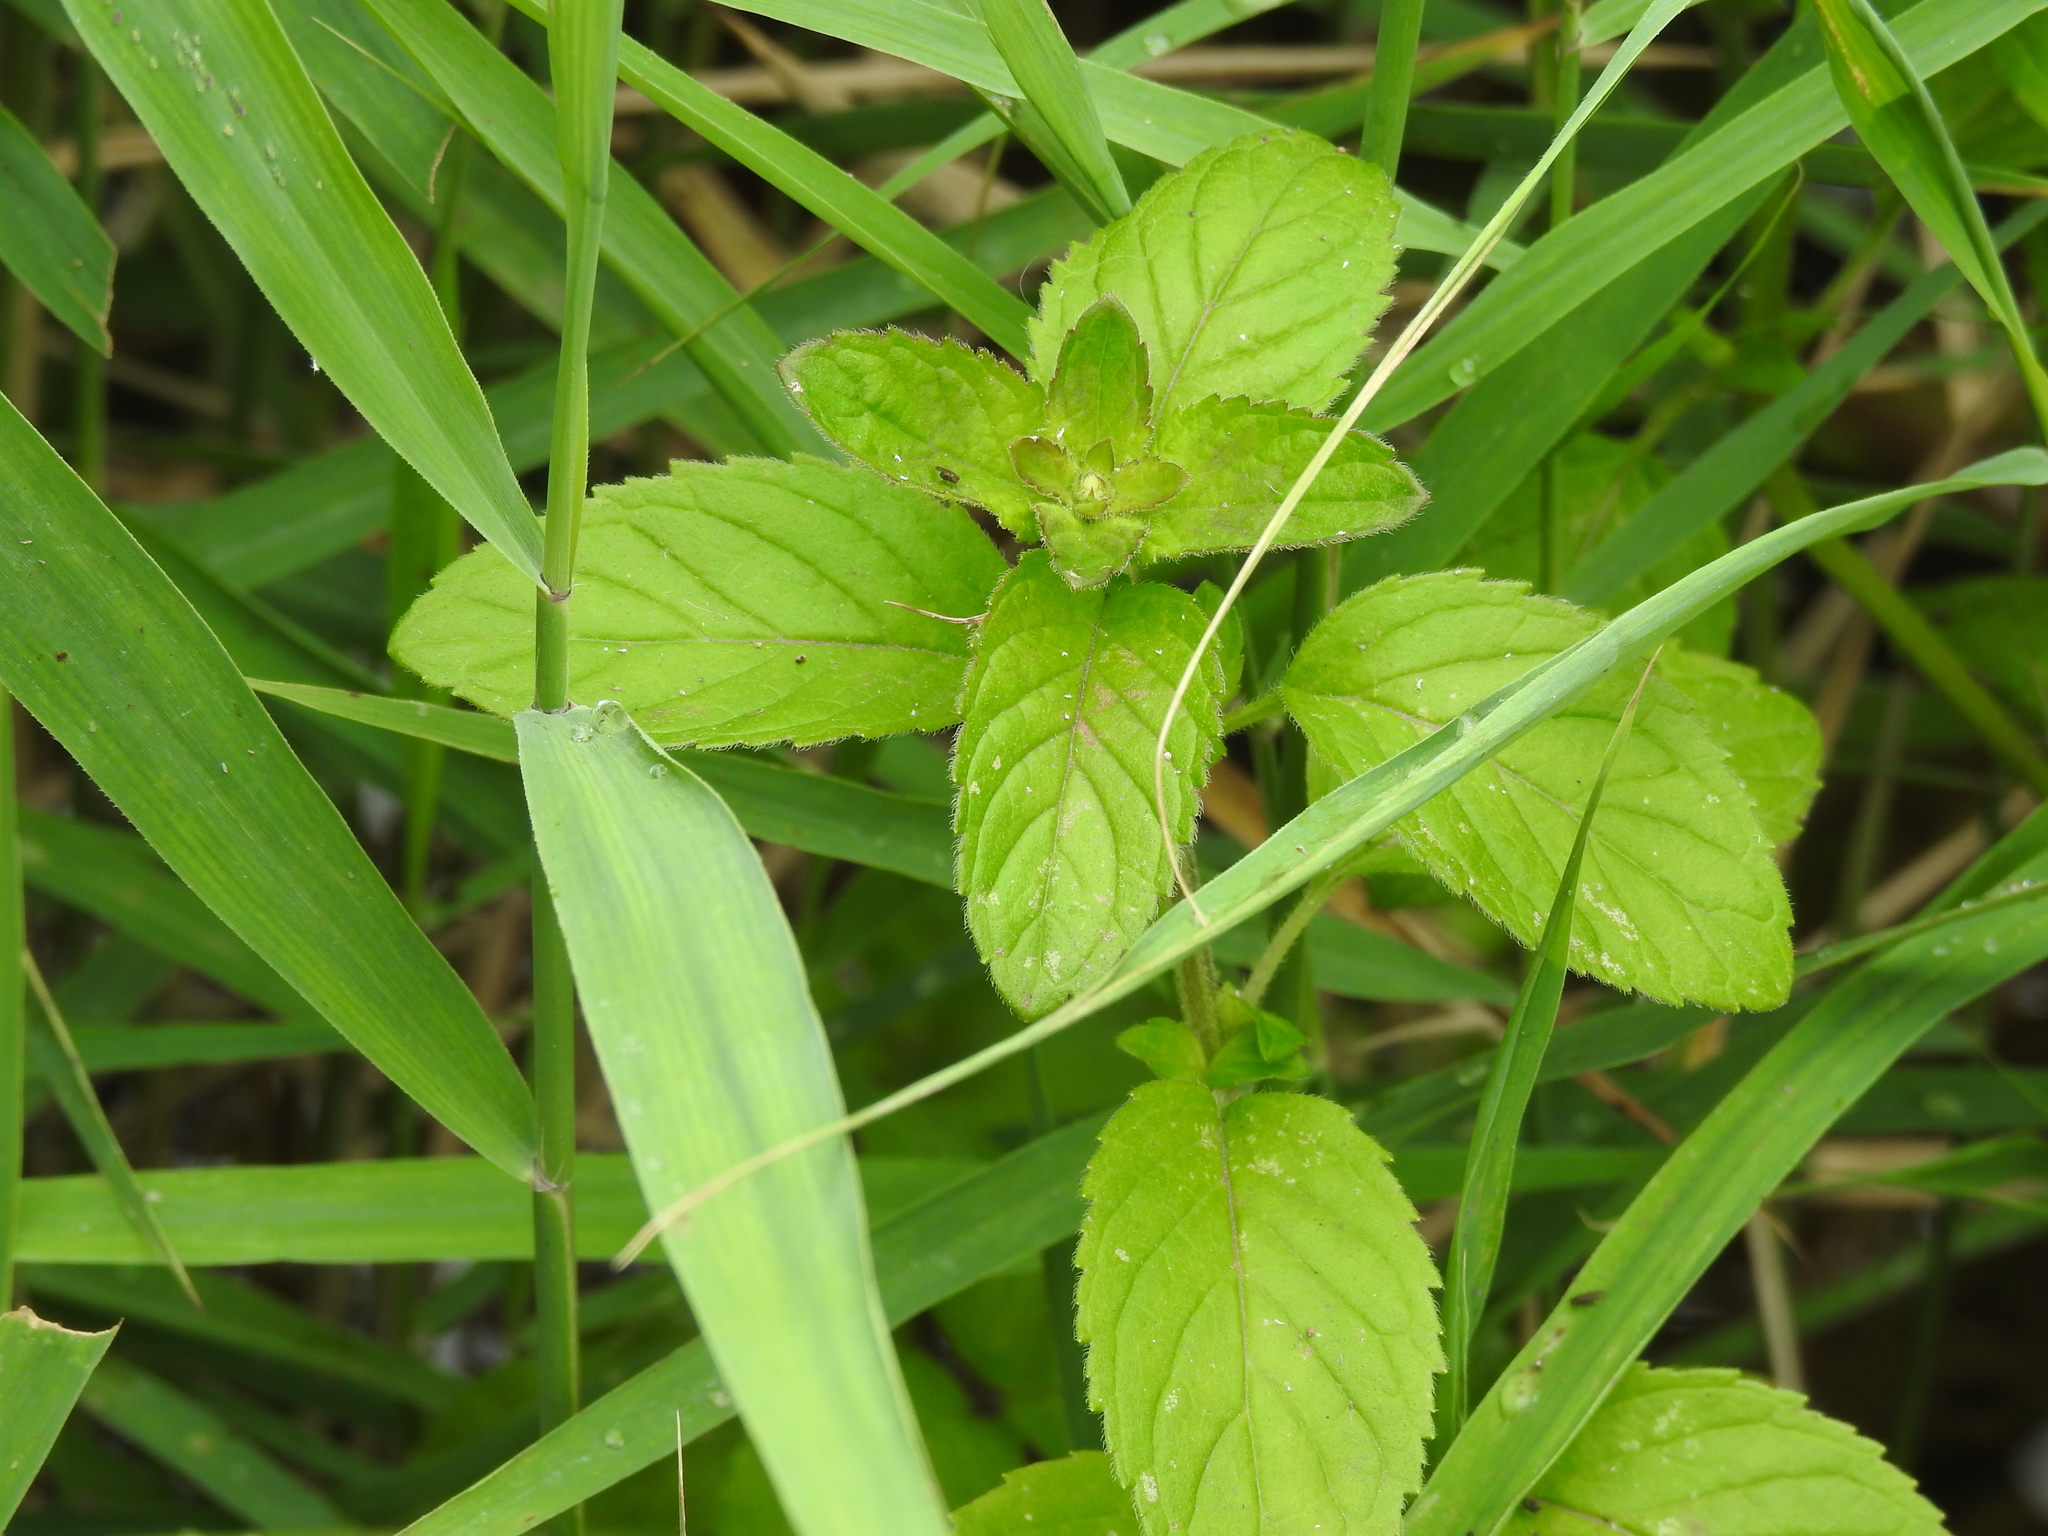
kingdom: Plantae
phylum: Tracheophyta
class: Magnoliopsida
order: Lamiales
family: Lamiaceae
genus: Mentha
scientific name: Mentha aquatica
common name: Water mint
